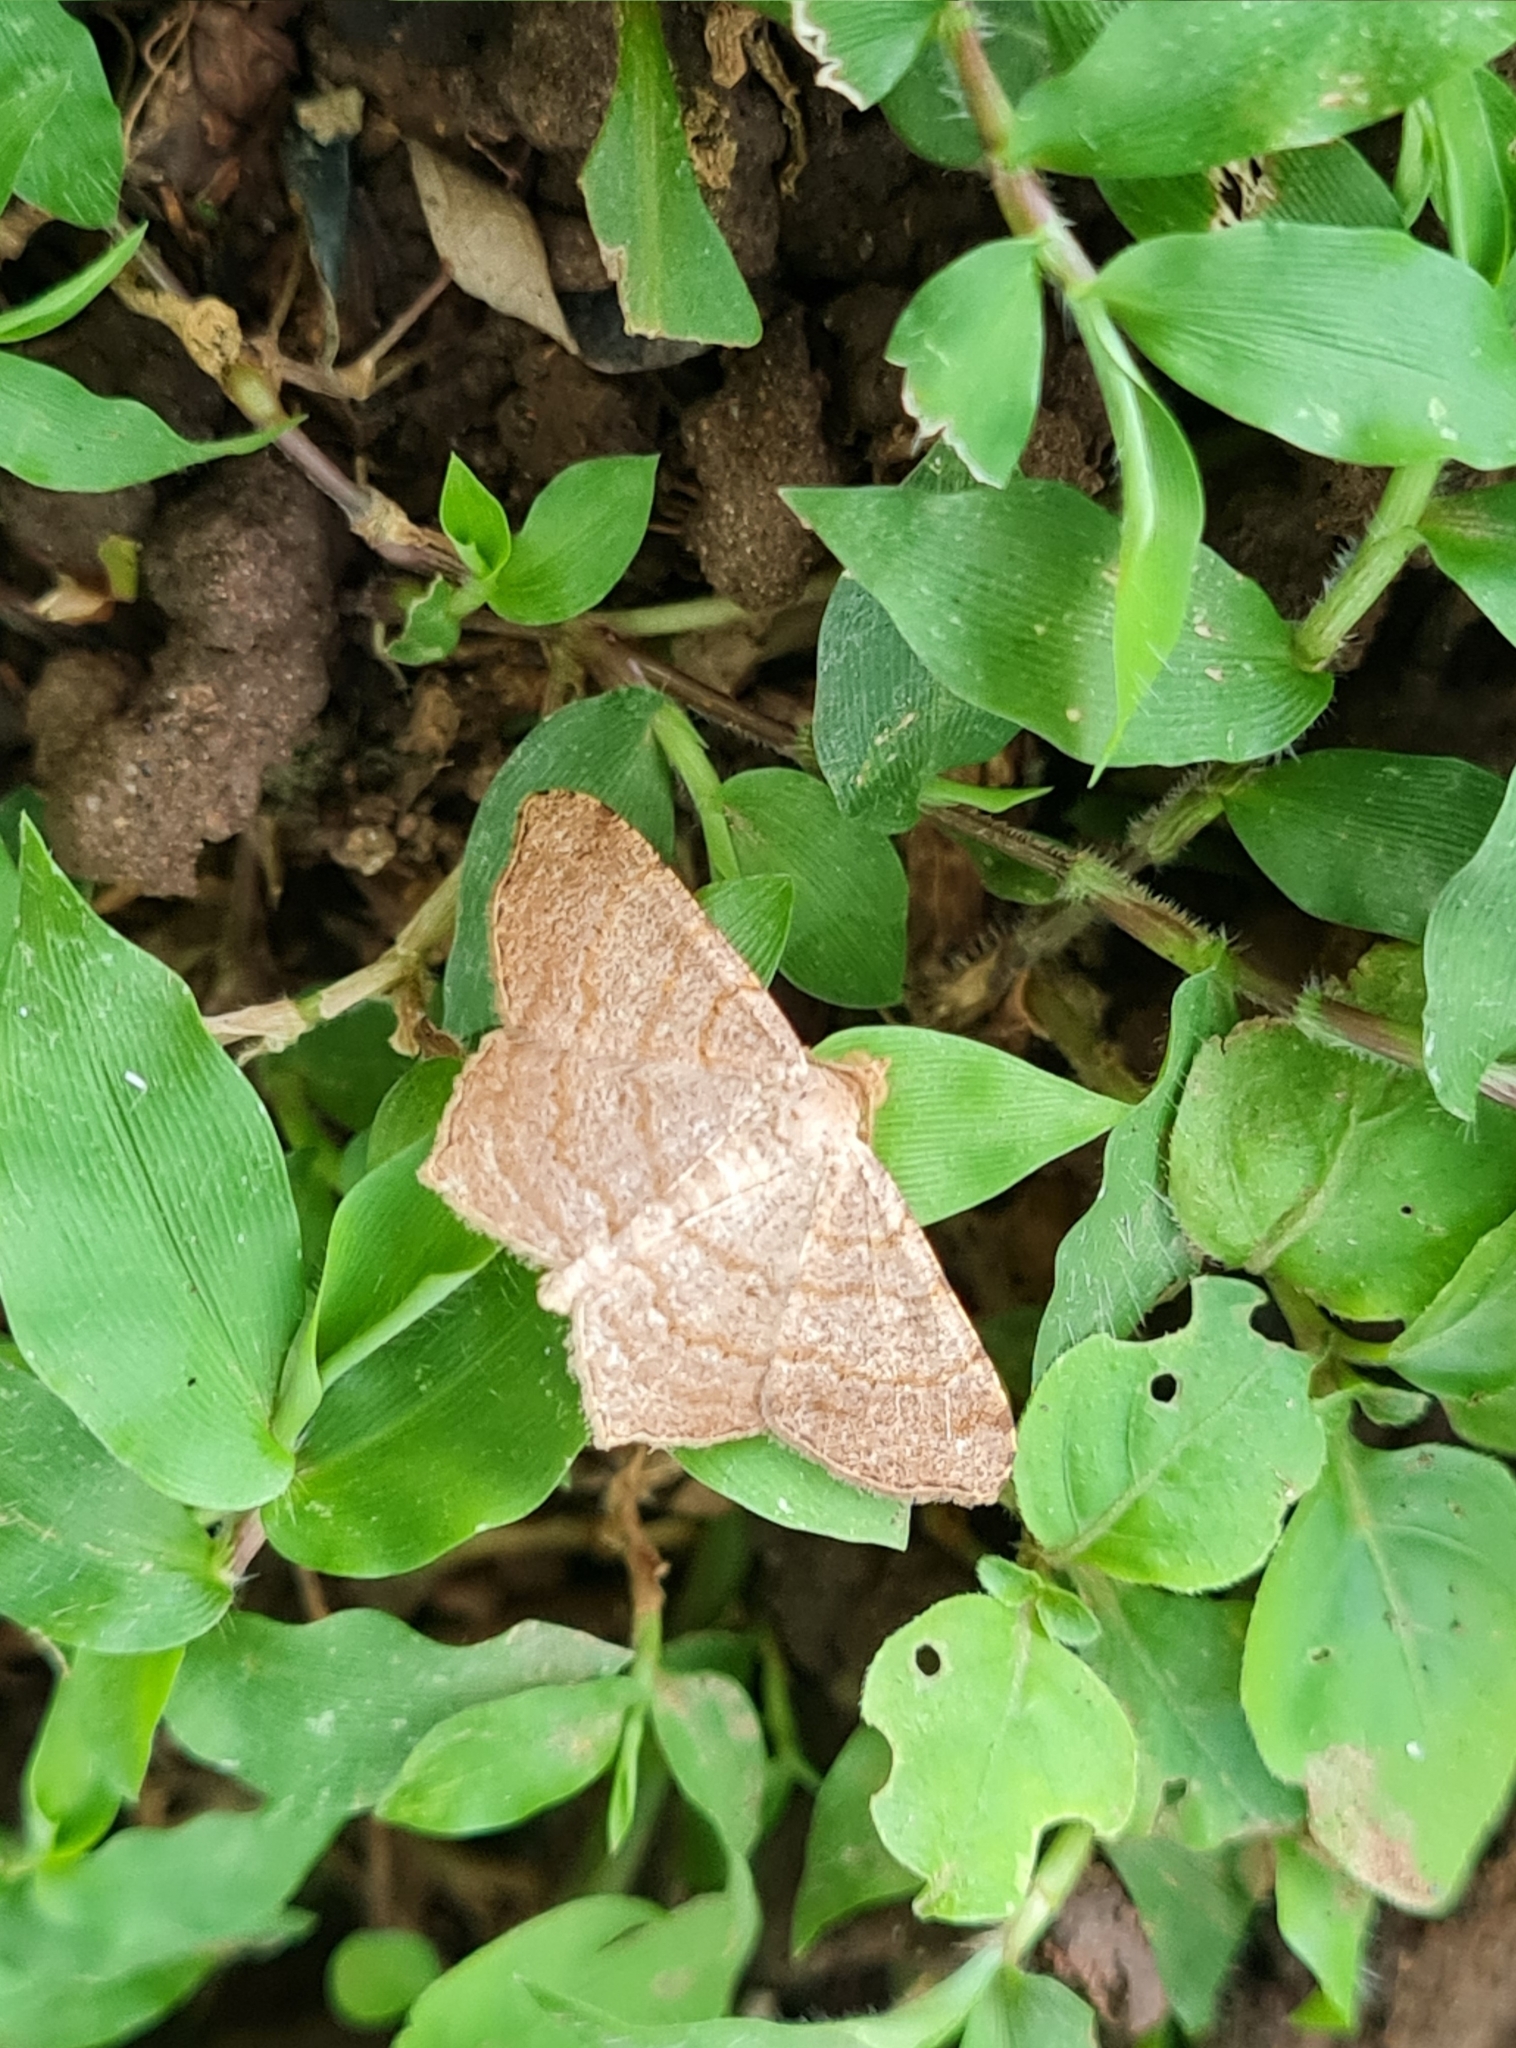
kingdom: Animalia
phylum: Arthropoda
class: Insecta
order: Lepidoptera
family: Geometridae
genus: Macaria
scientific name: Macaria abydata
